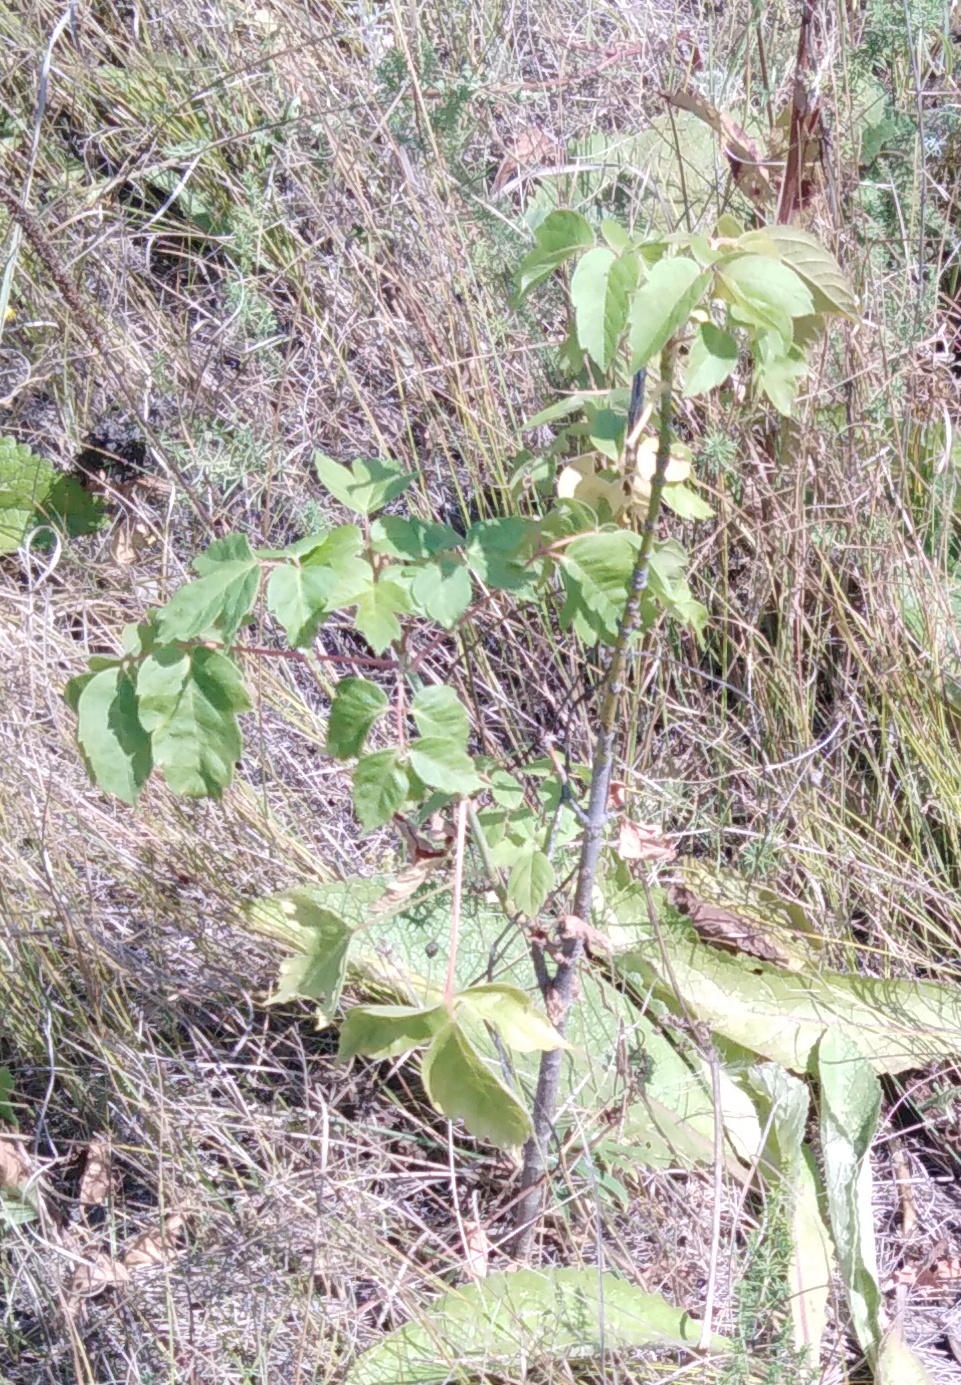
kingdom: Plantae
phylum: Tracheophyta
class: Magnoliopsida
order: Sapindales
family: Sapindaceae
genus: Acer
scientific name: Acer negundo
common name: Ashleaf maple
